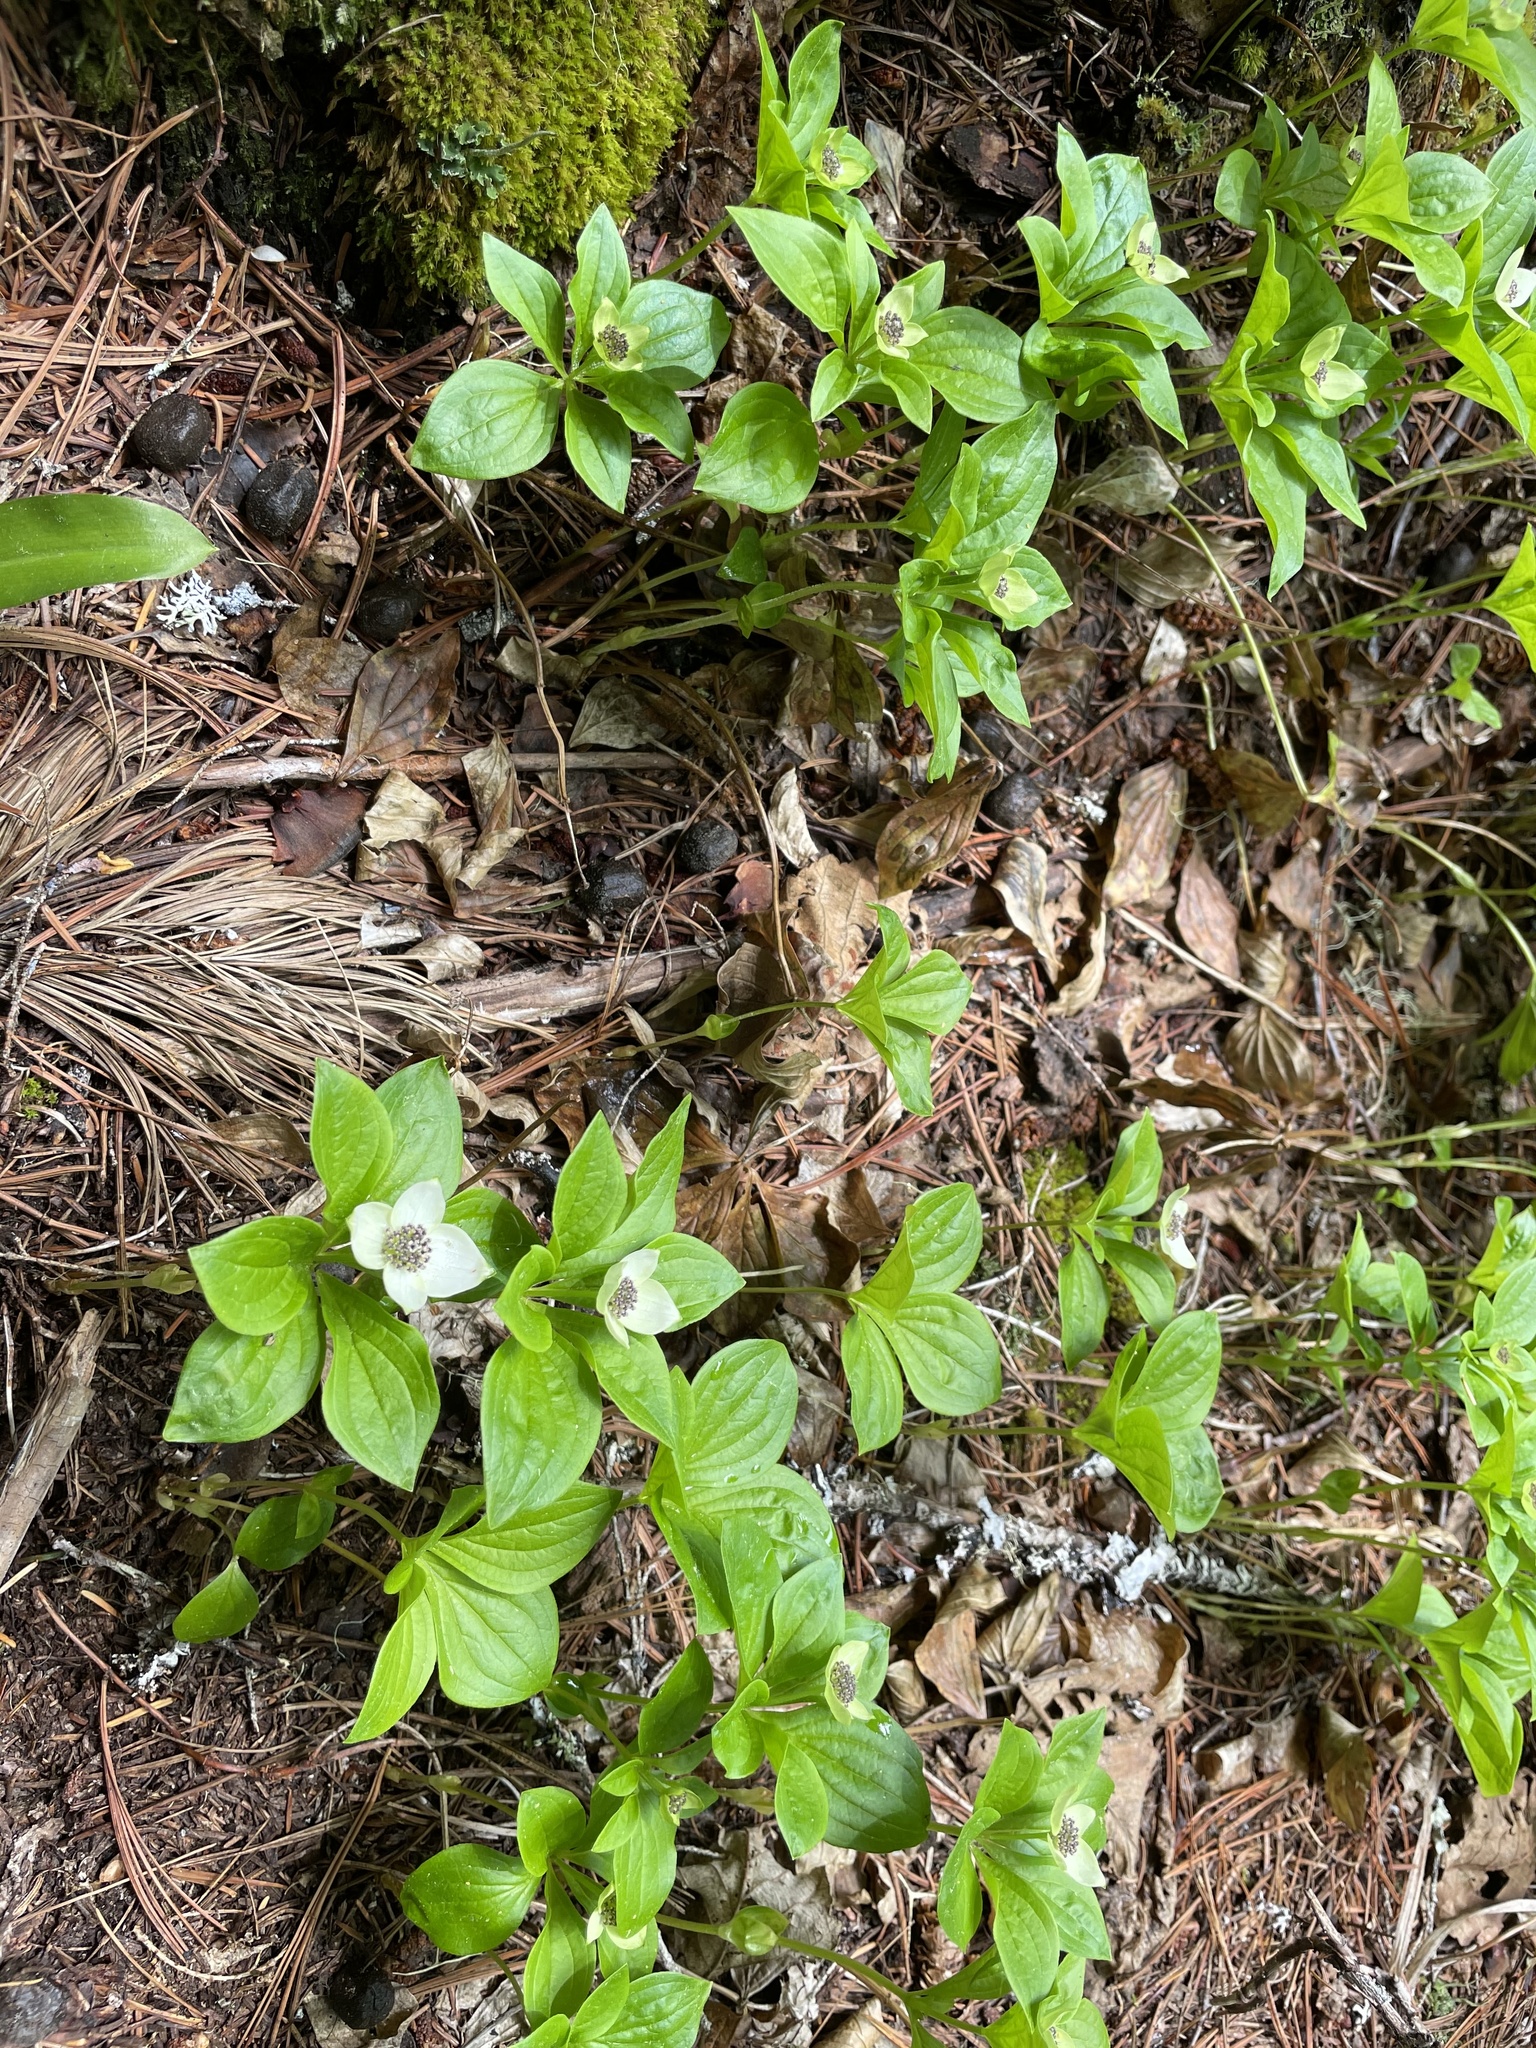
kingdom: Plantae
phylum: Tracheophyta
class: Magnoliopsida
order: Cornales
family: Cornaceae
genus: Cornus
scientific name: Cornus unalaschkensis
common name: Alaska bunchberry
